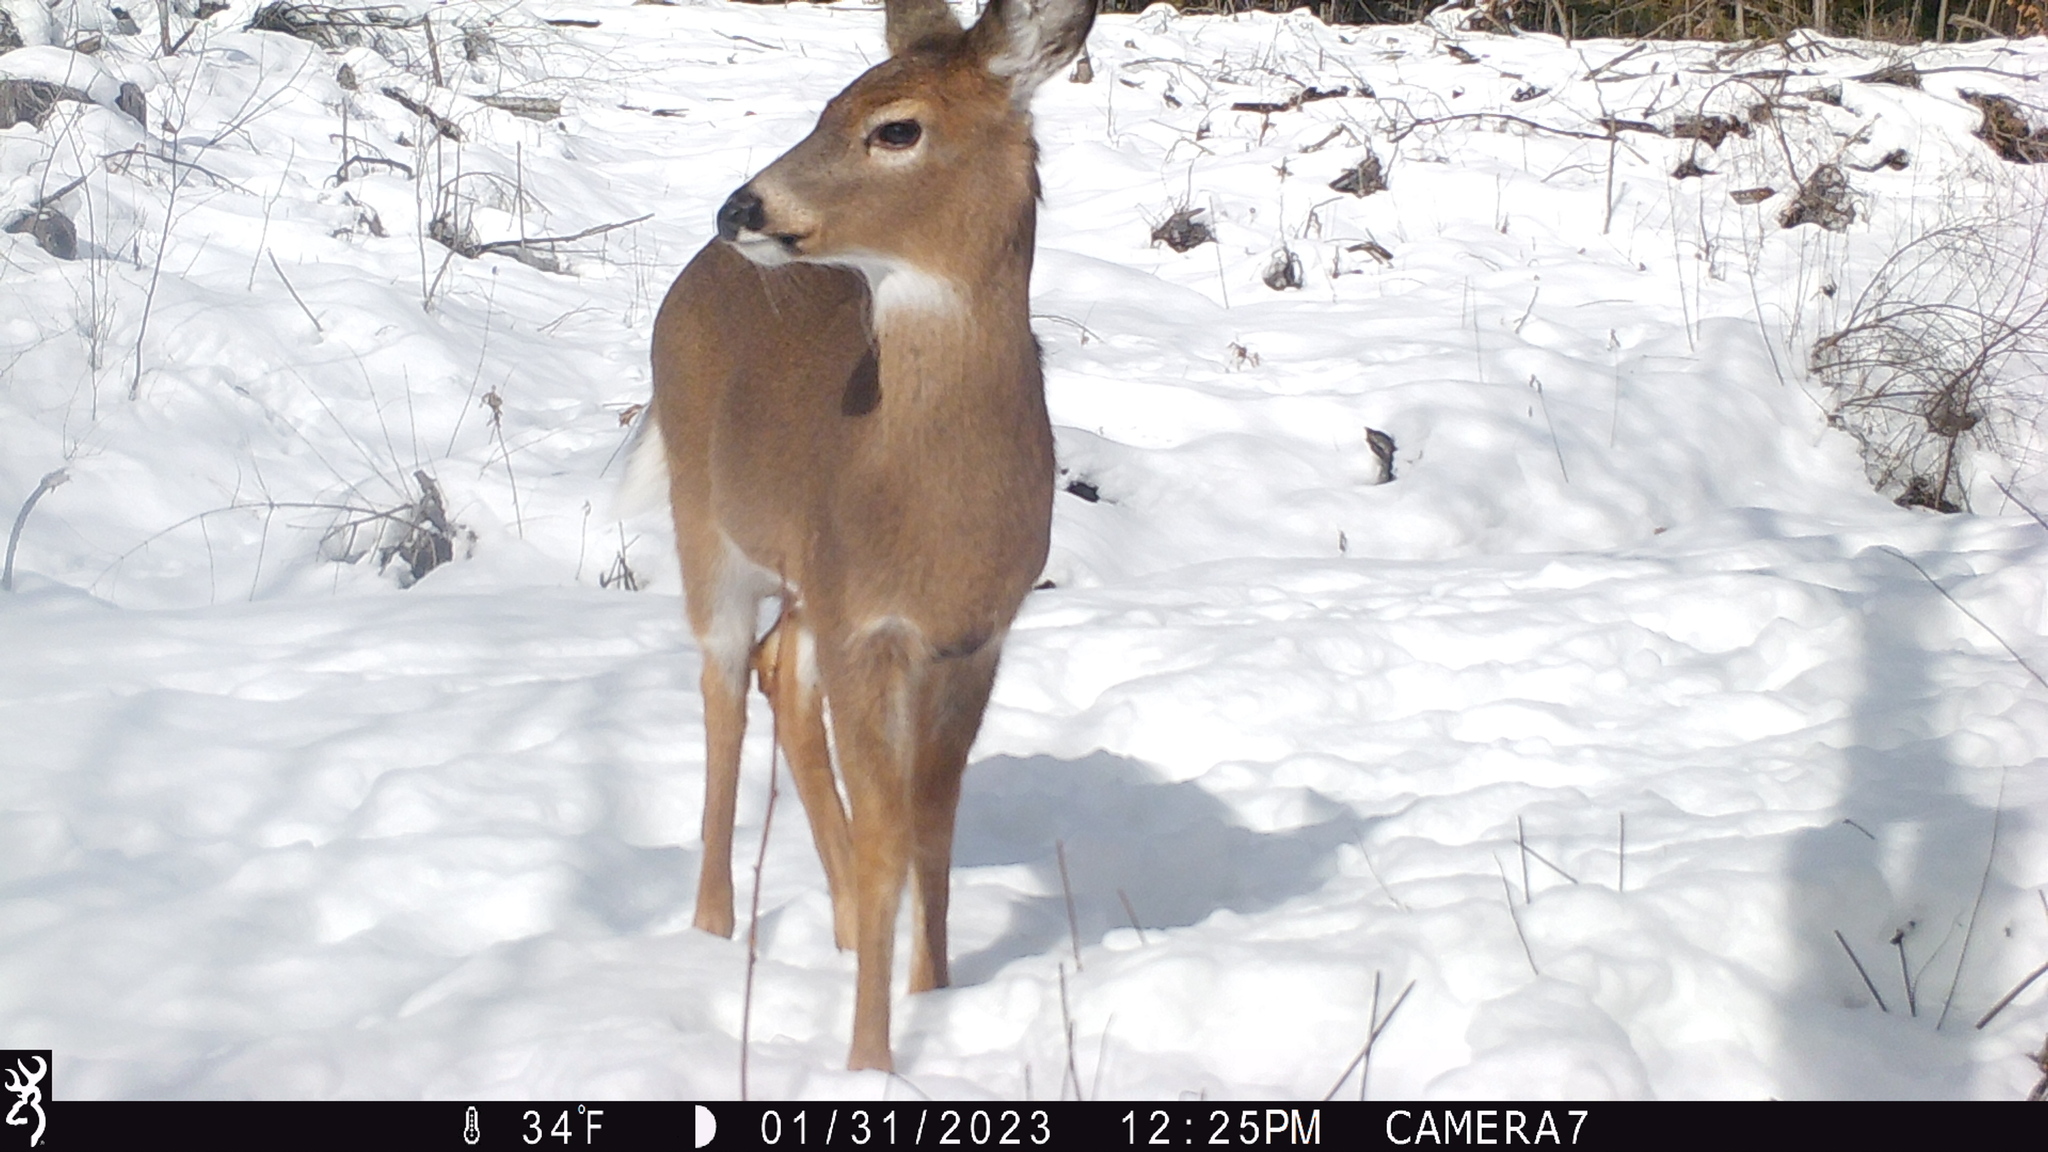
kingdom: Animalia
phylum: Chordata
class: Mammalia
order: Artiodactyla
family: Cervidae
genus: Odocoileus
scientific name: Odocoileus virginianus
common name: White-tailed deer
